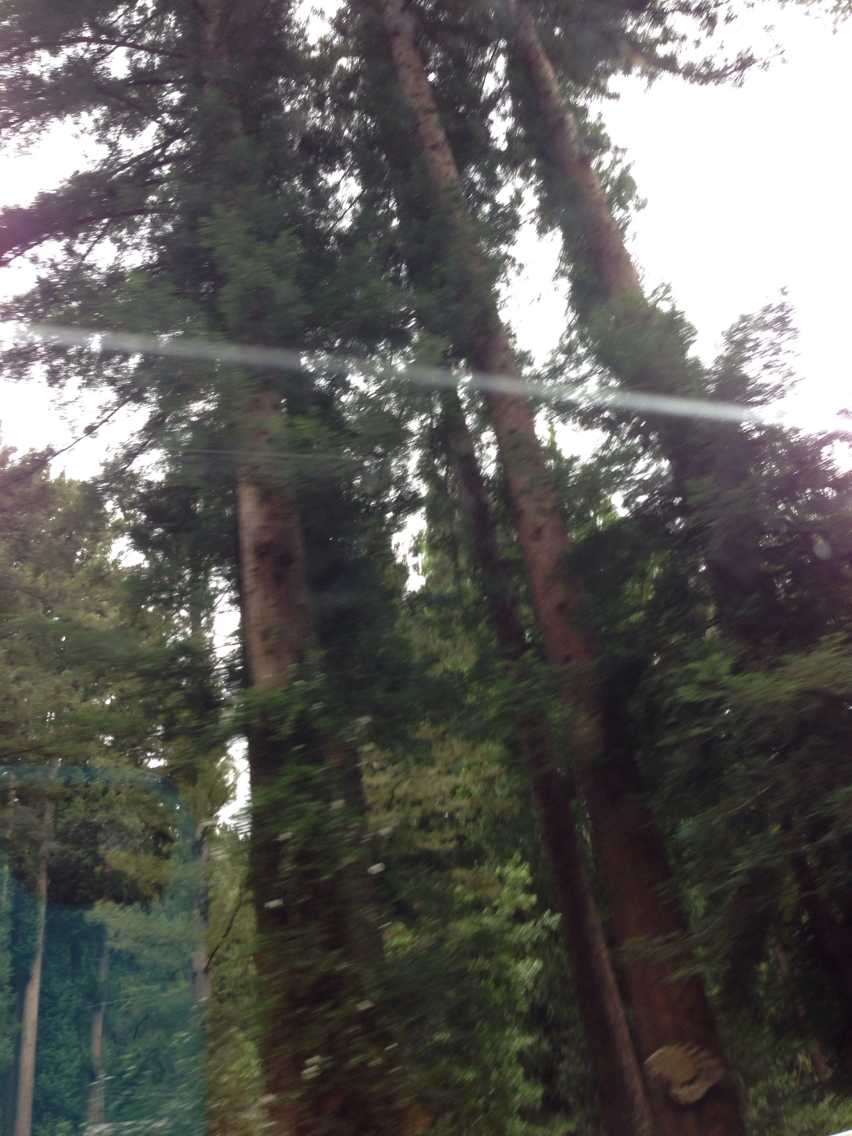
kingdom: Plantae
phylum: Tracheophyta
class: Pinopsida
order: Pinales
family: Cupressaceae
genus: Sequoia
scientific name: Sequoia sempervirens
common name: Coast redwood
